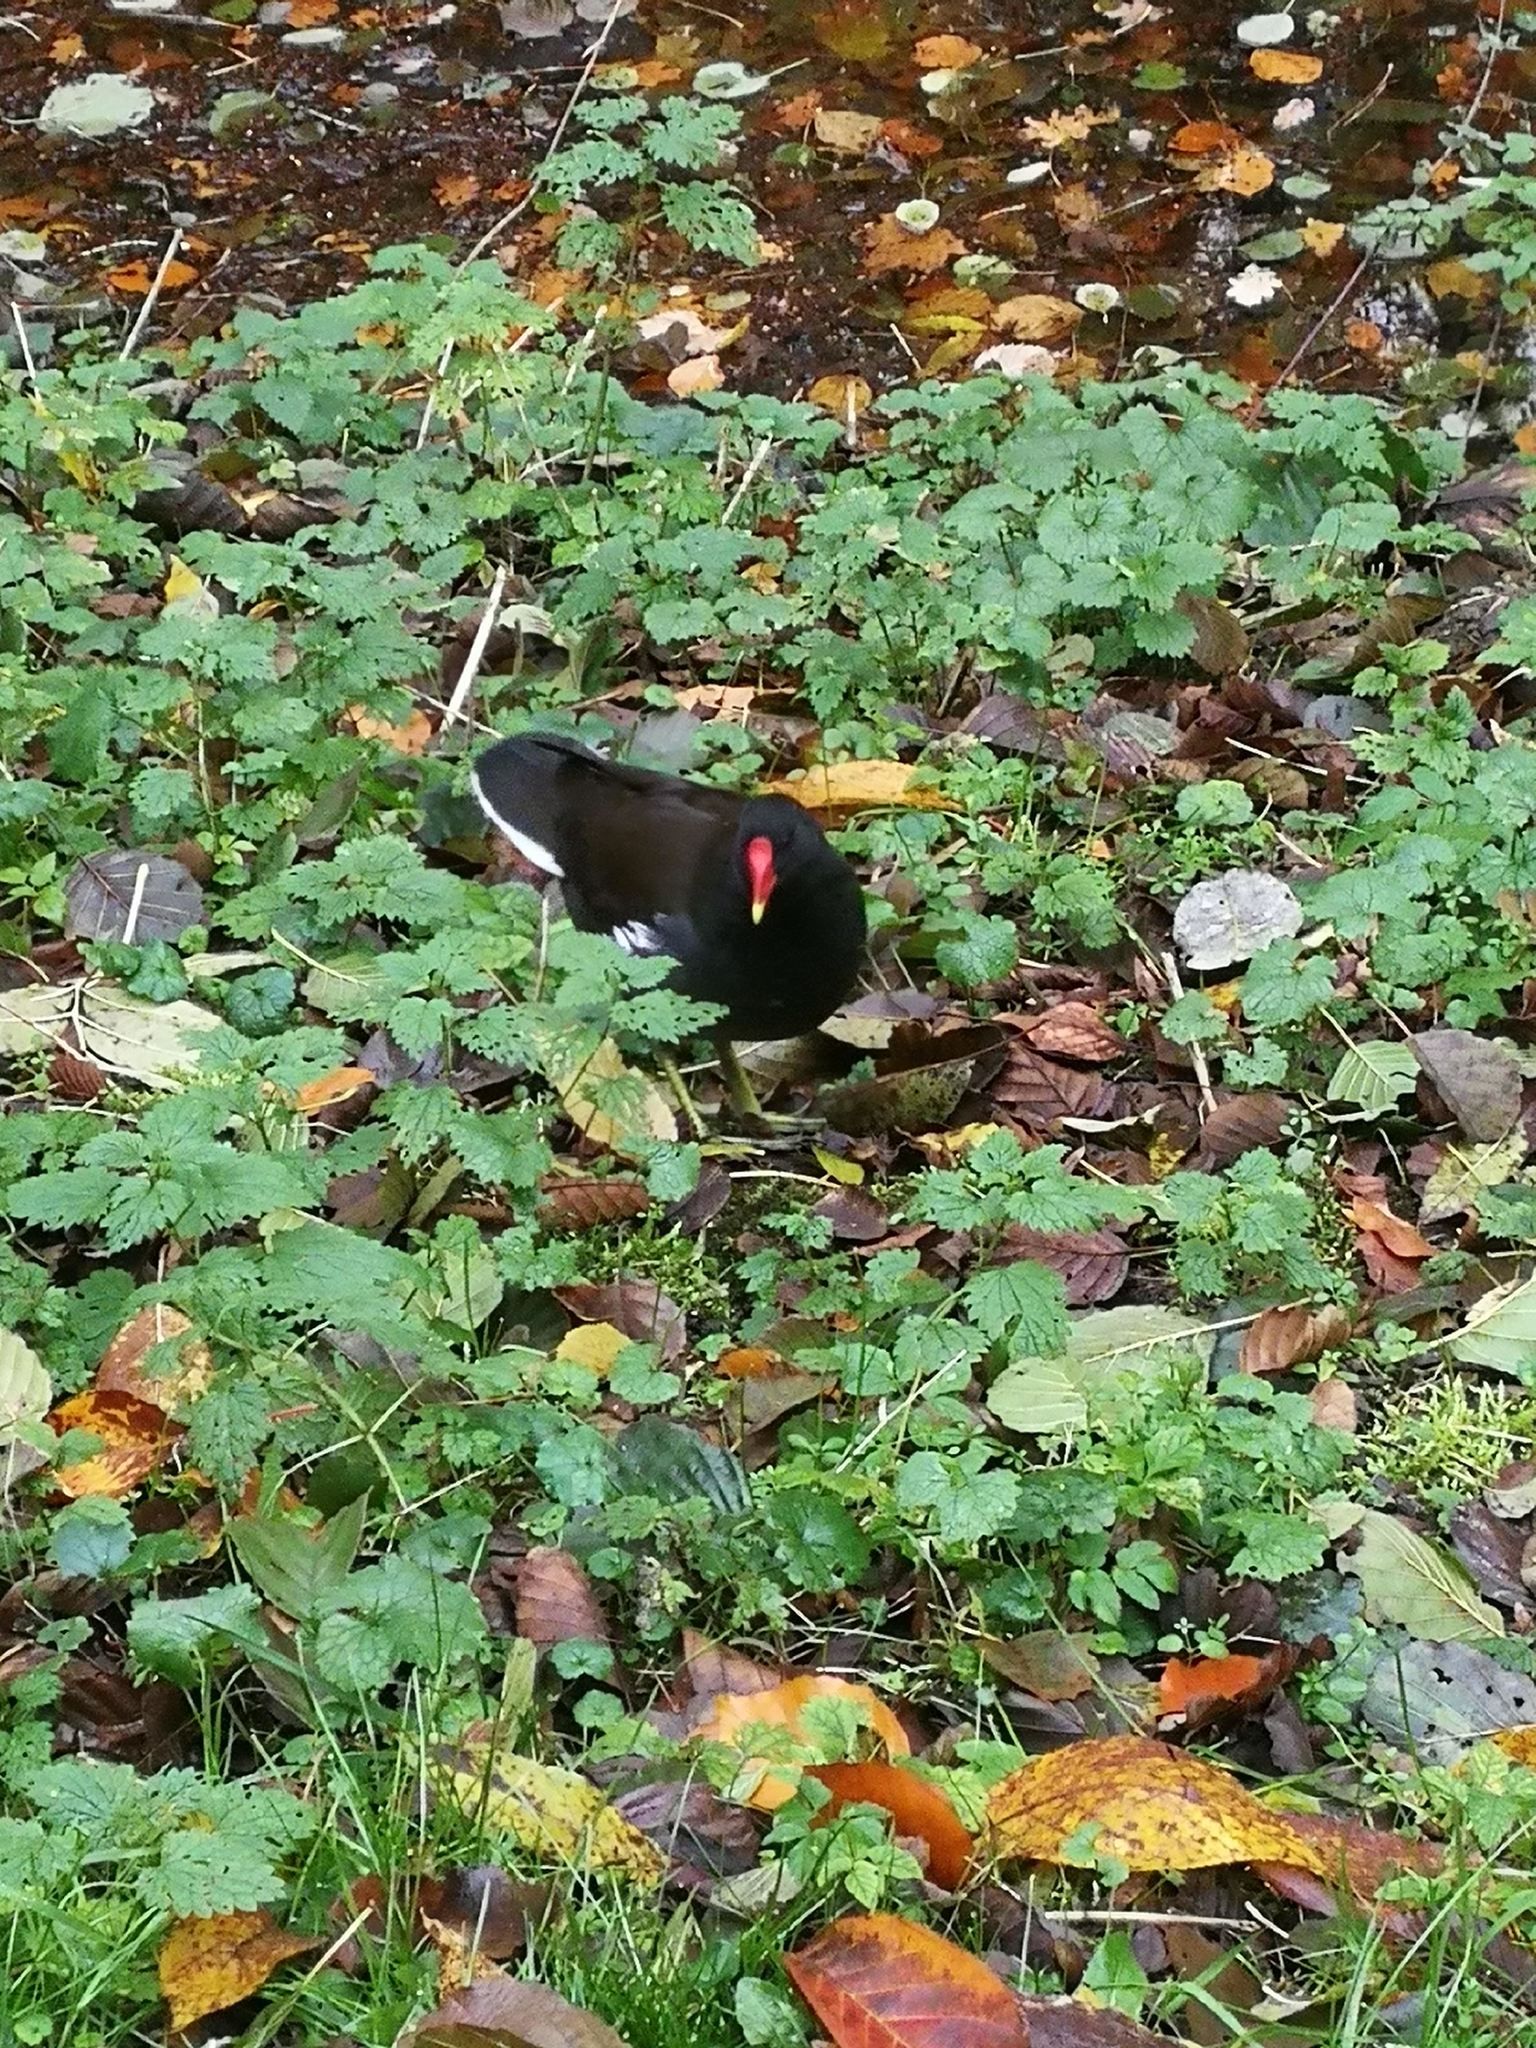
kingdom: Animalia
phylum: Chordata
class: Aves
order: Gruiformes
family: Rallidae
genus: Gallinula
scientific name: Gallinula chloropus
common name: Common moorhen
